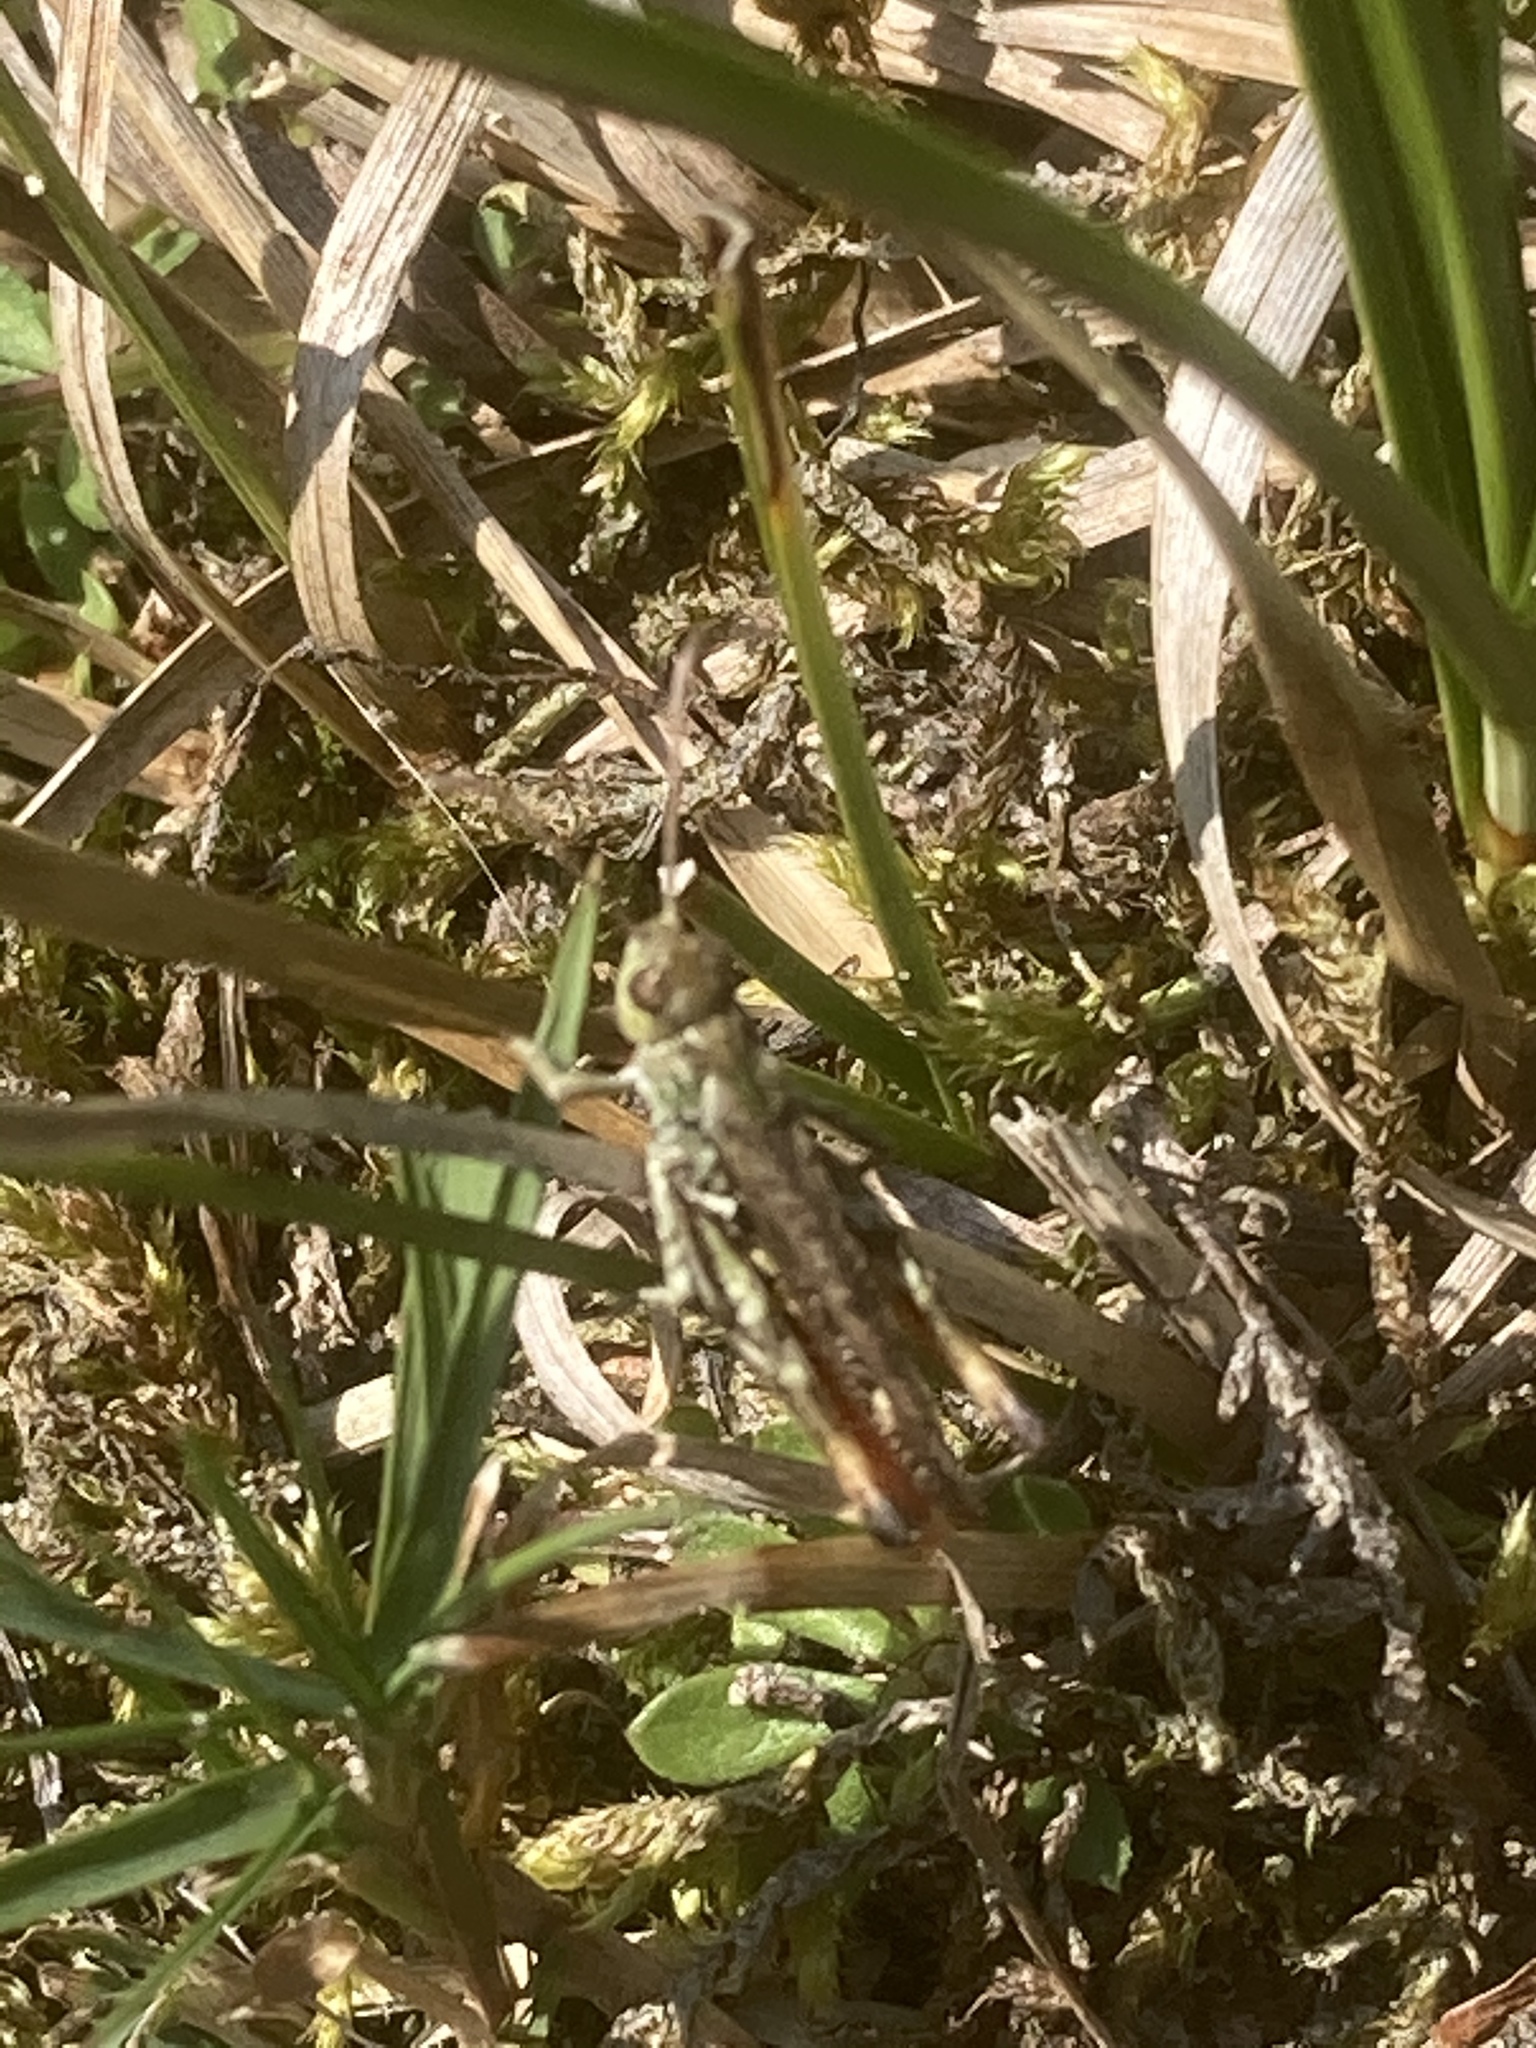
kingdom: Animalia
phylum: Arthropoda
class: Insecta
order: Orthoptera
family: Acrididae
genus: Myrmeleotettix
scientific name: Myrmeleotettix maculatus
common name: Mottled grasshopper
